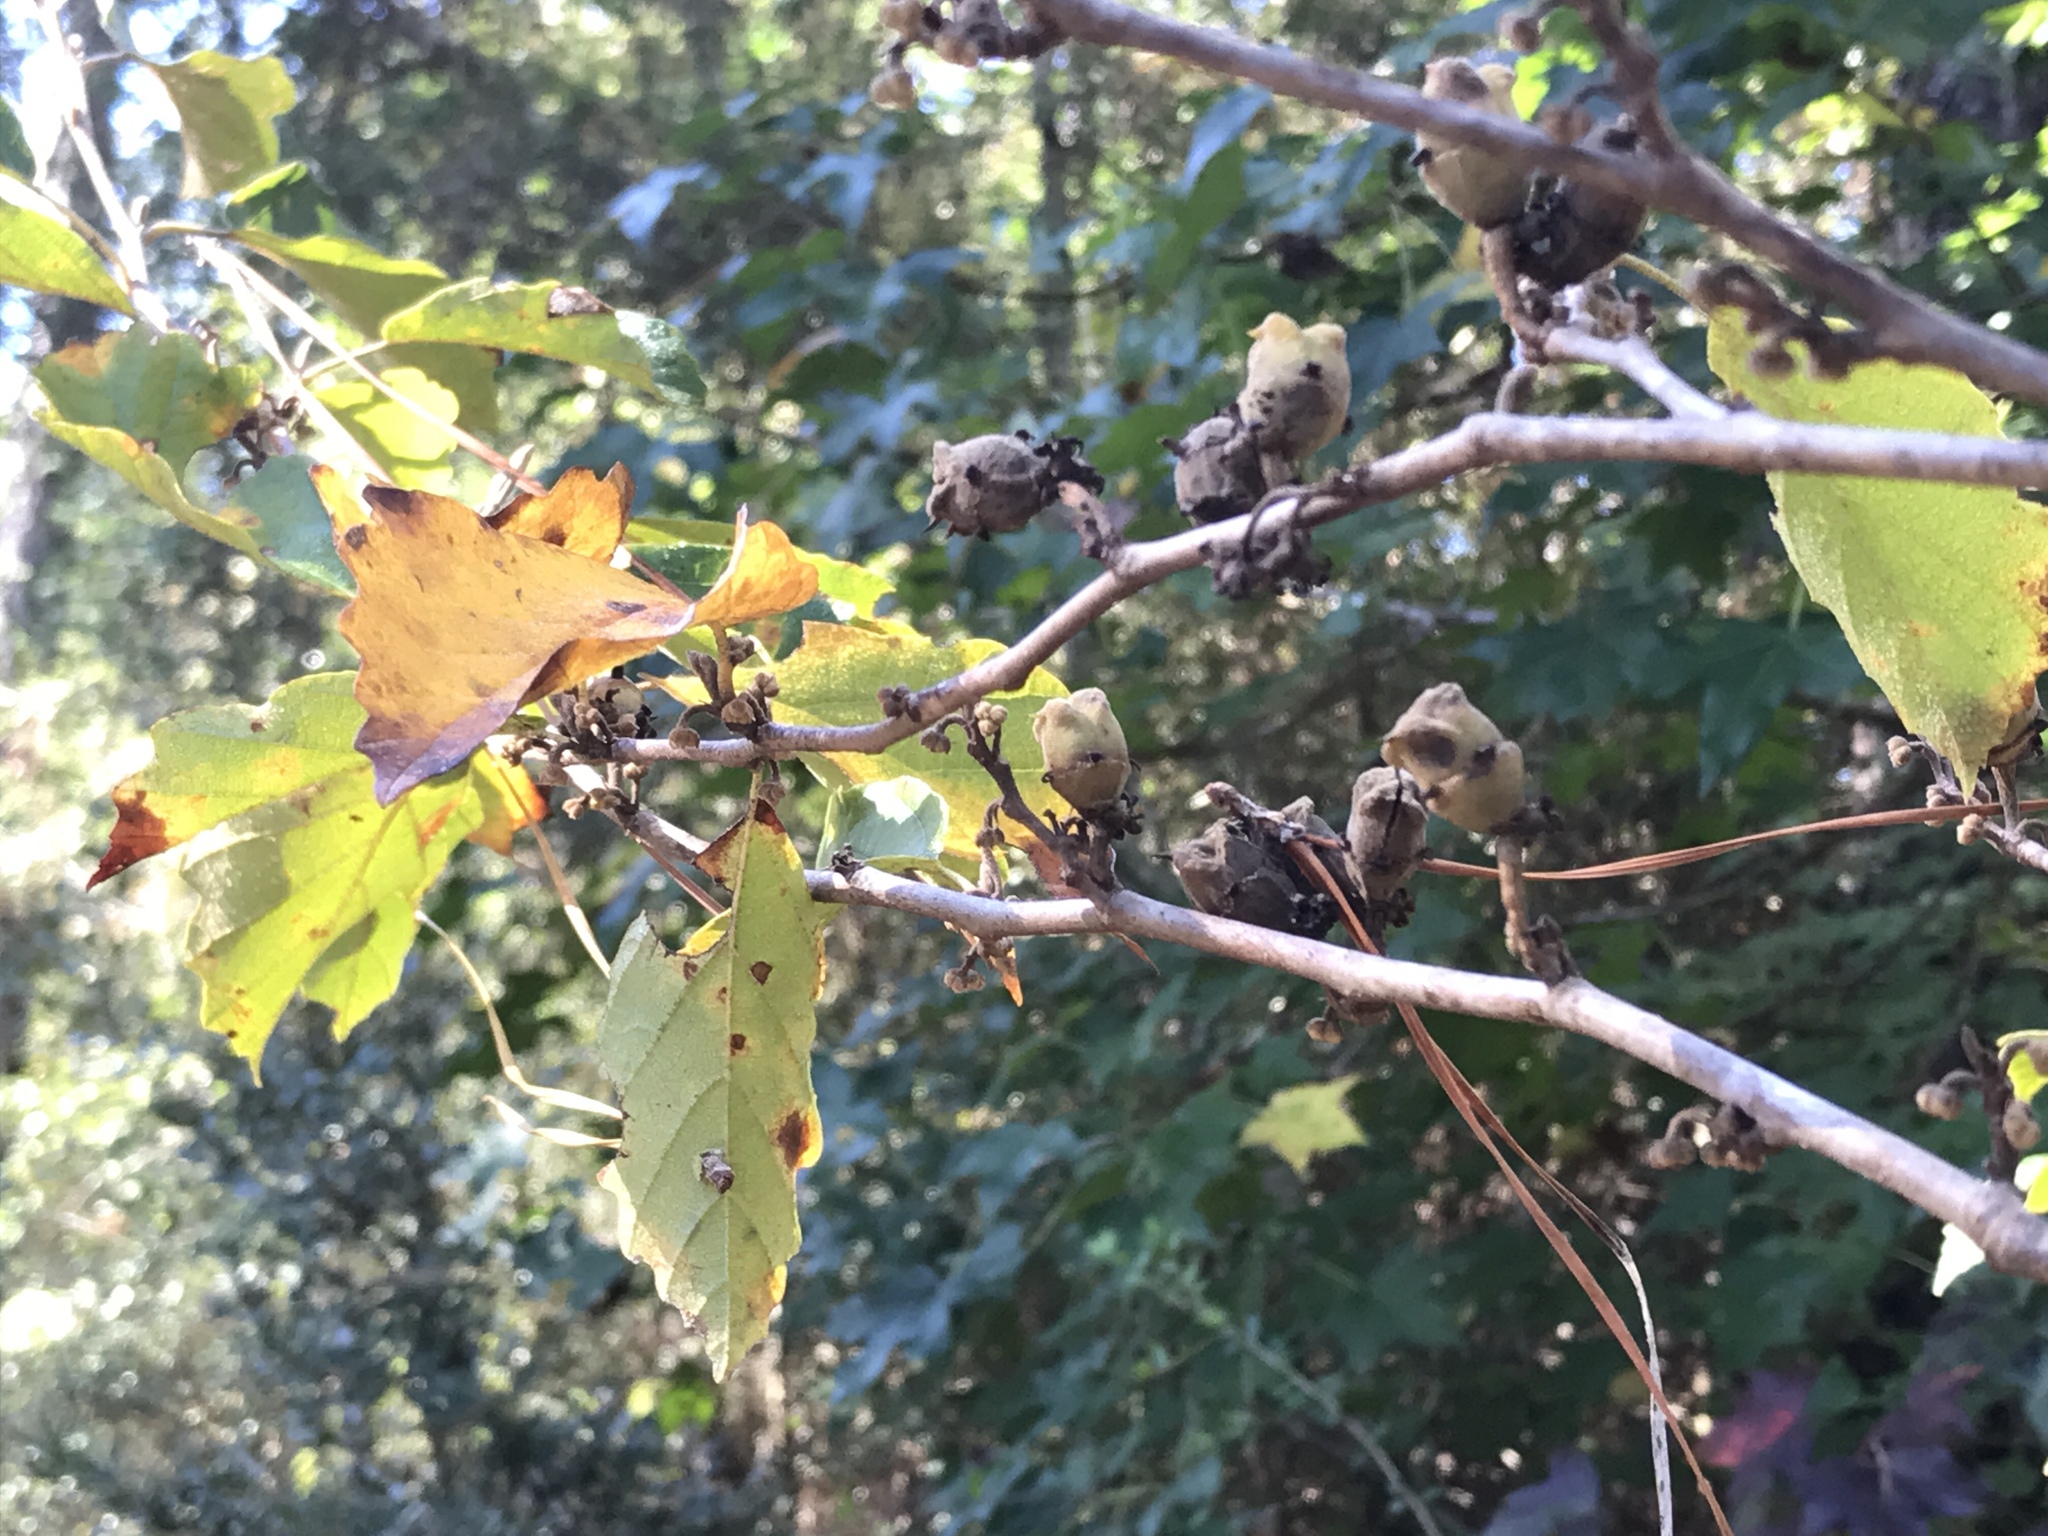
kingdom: Plantae
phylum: Tracheophyta
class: Magnoliopsida
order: Saxifragales
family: Hamamelidaceae
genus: Hamamelis
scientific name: Hamamelis virginiana
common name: Witch-hazel
